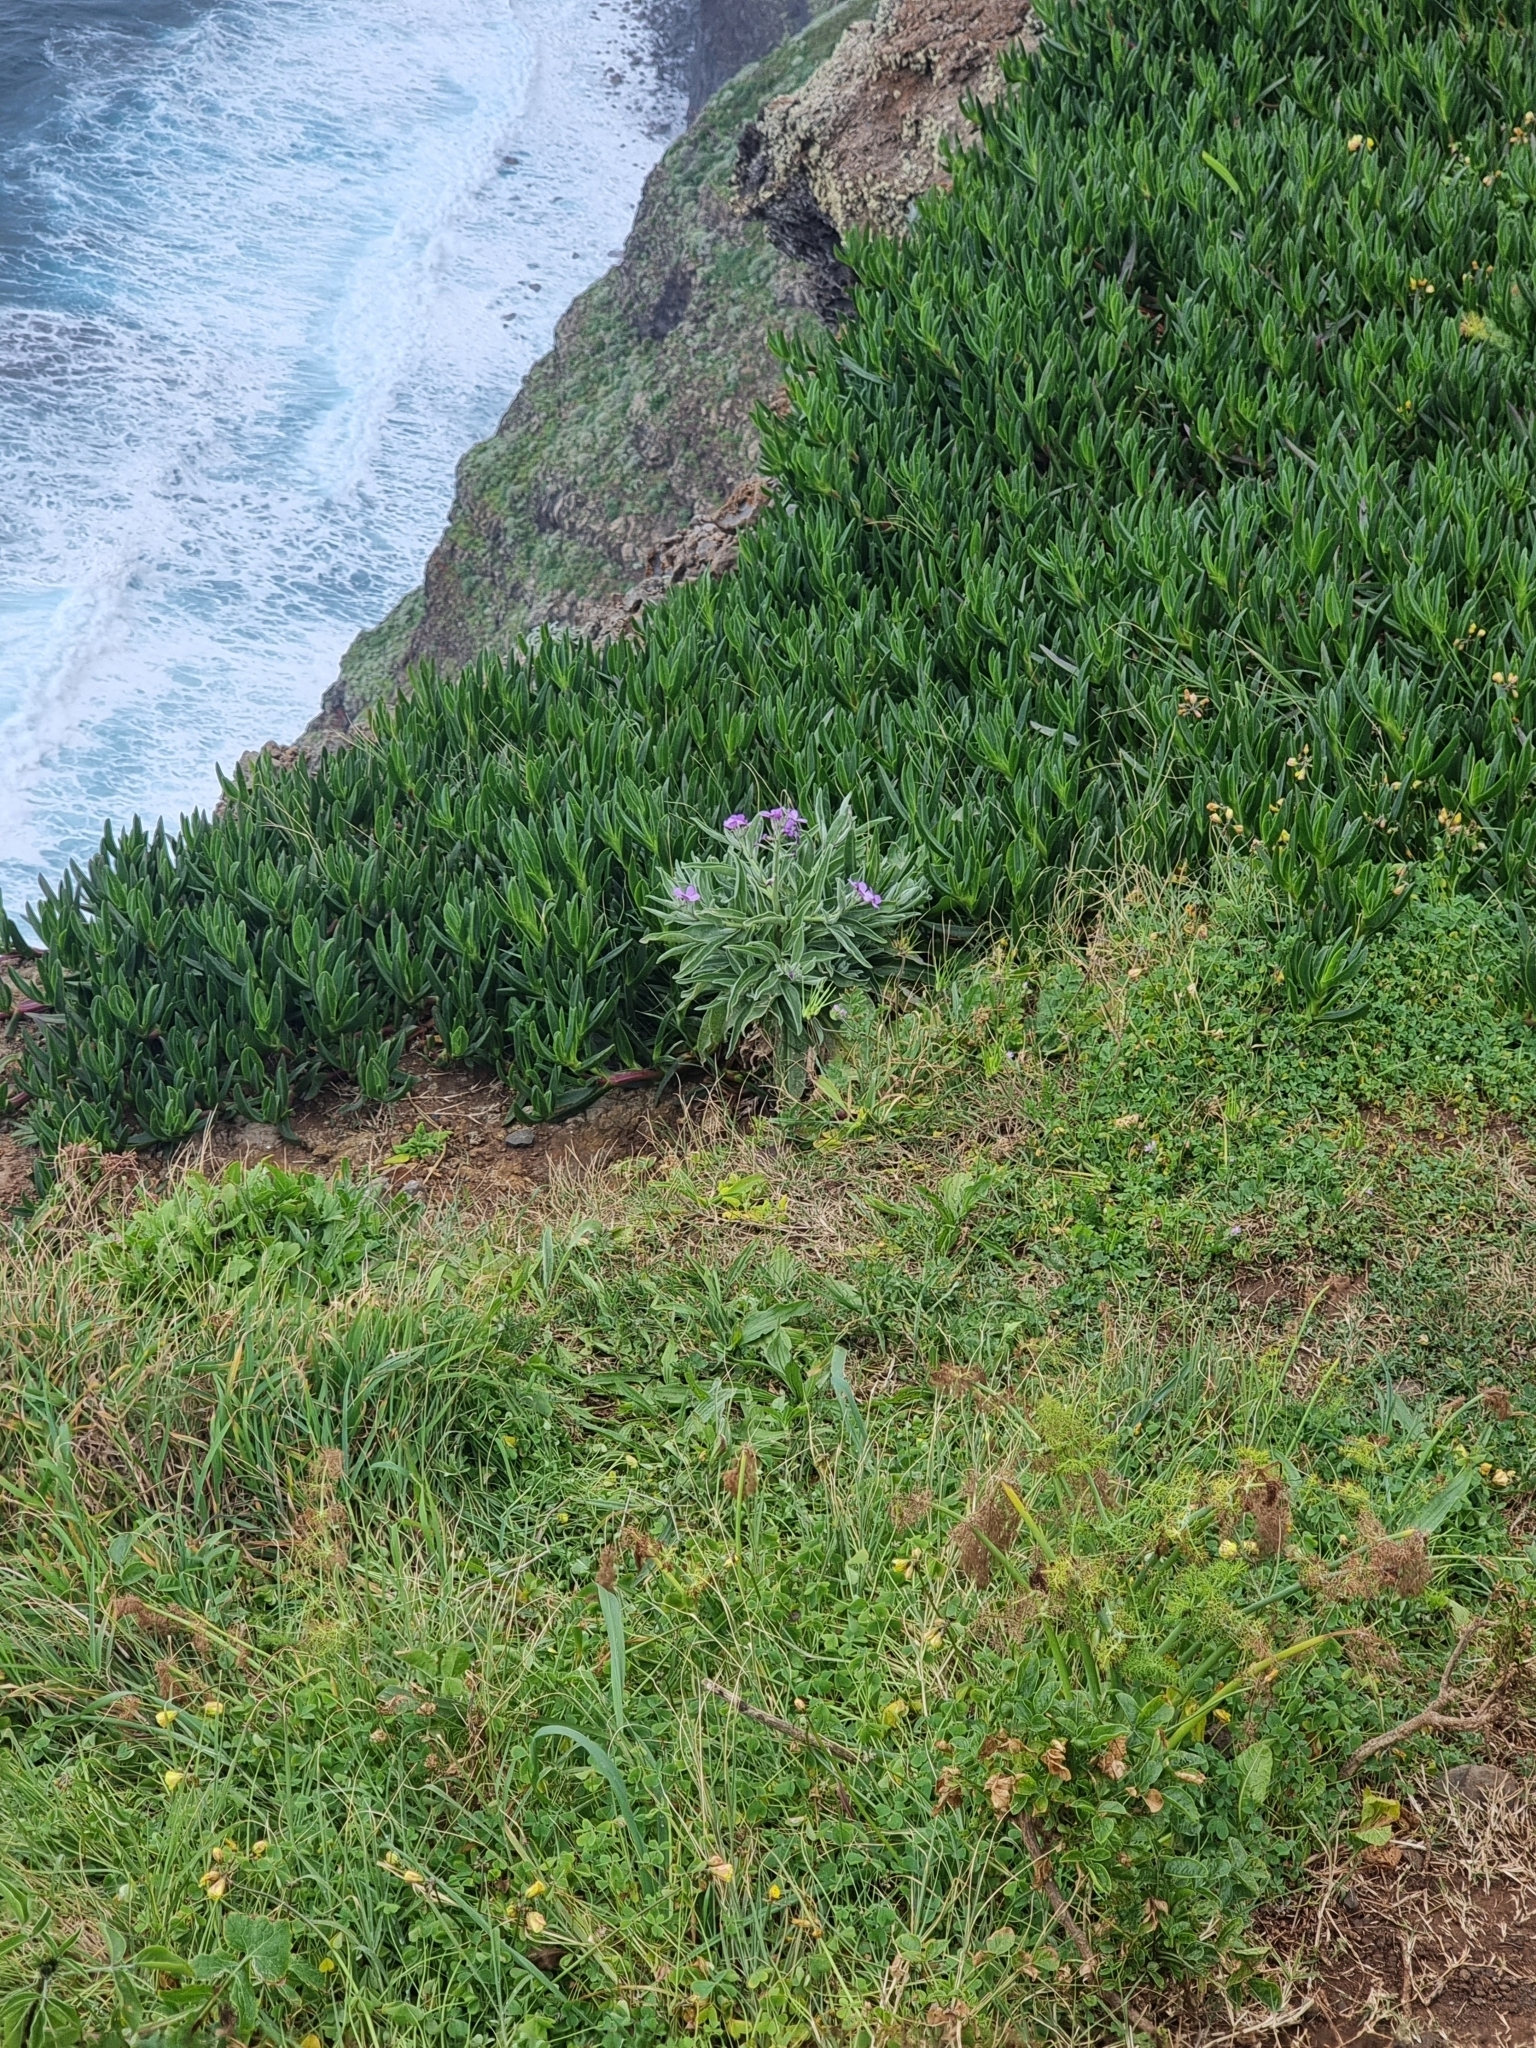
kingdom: Plantae
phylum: Tracheophyta
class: Magnoliopsida
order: Caryophyllales
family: Aizoaceae
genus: Carpobrotus
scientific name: Carpobrotus edulis
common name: Hottentot-fig
